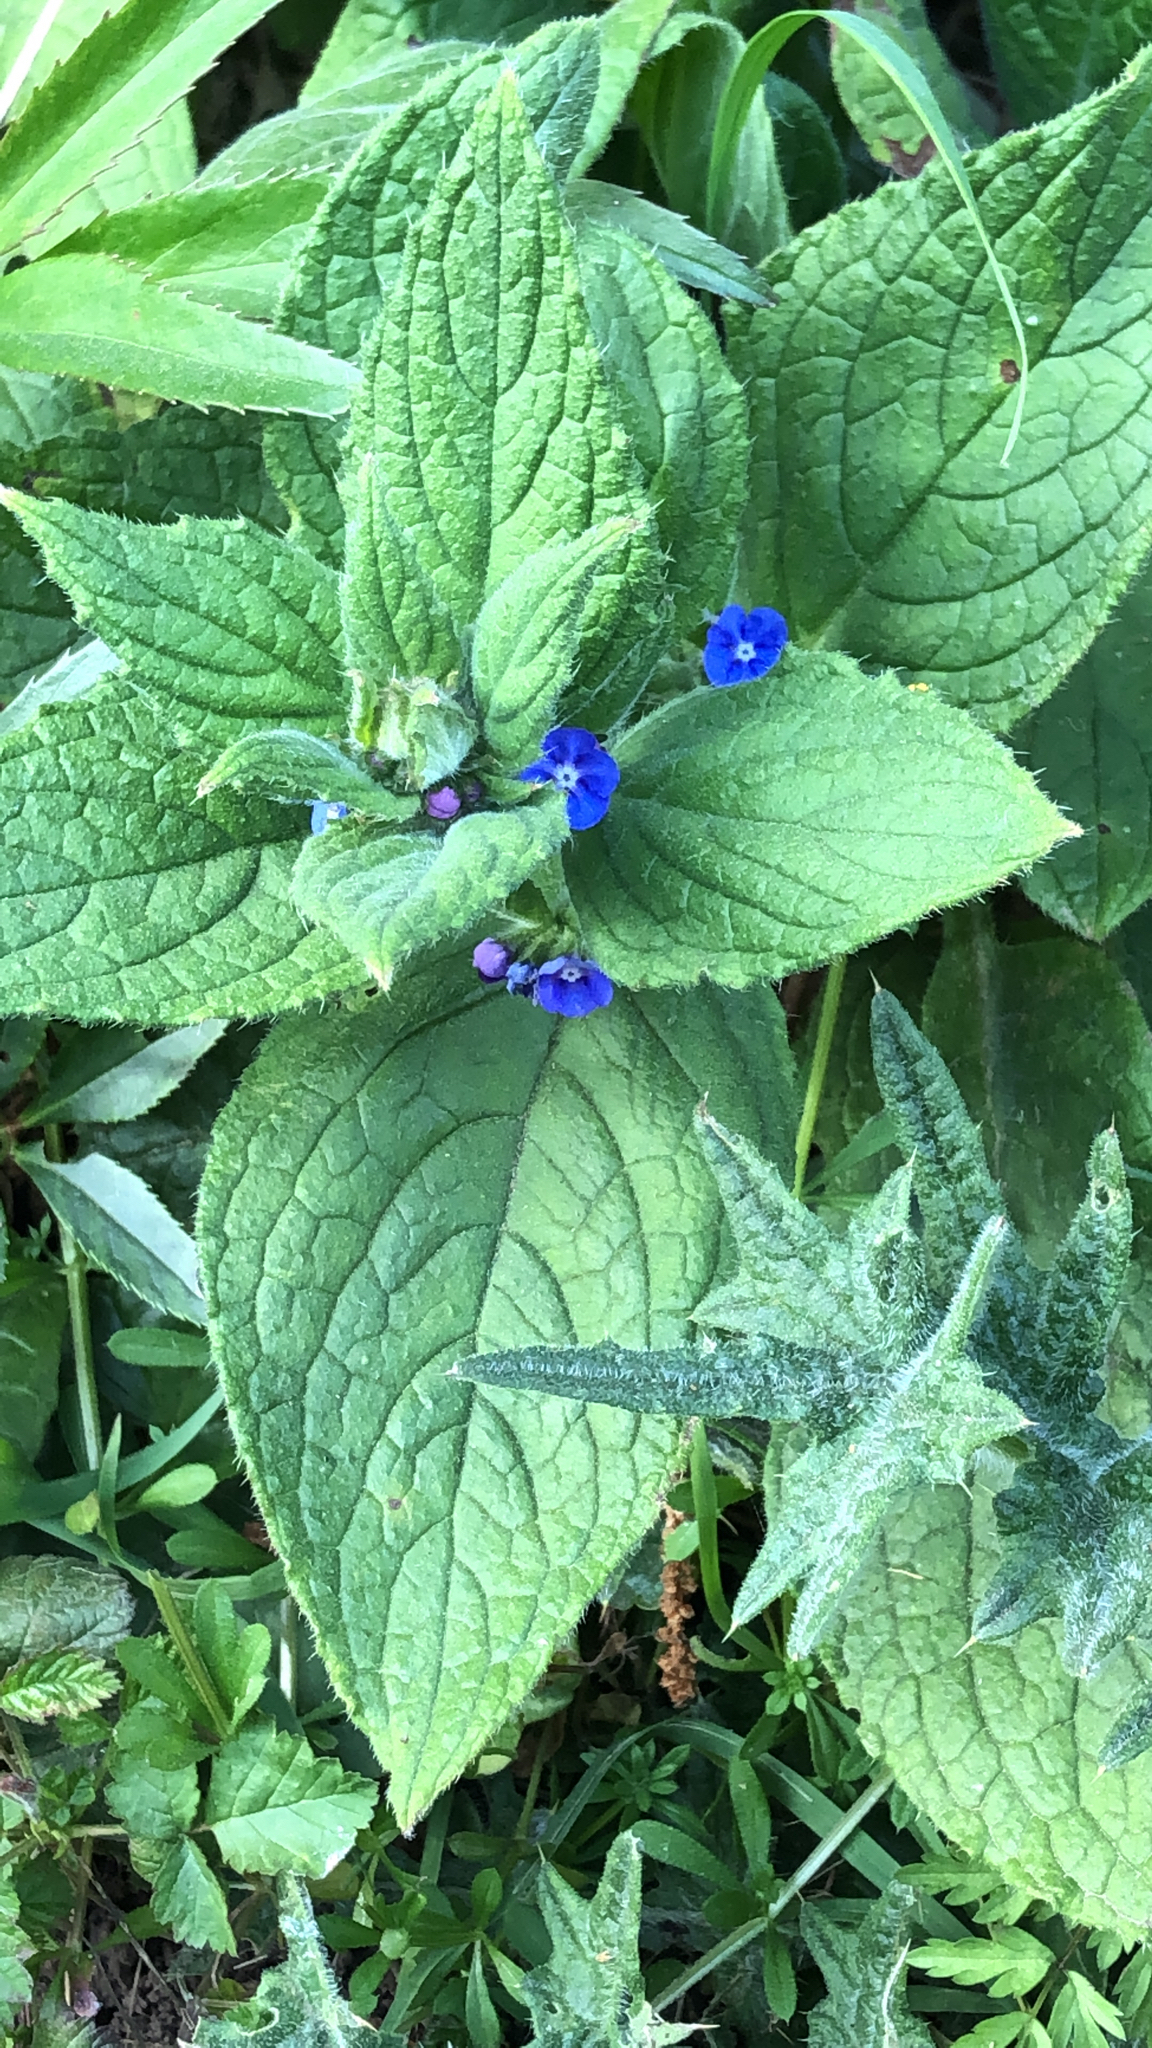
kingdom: Plantae
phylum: Tracheophyta
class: Magnoliopsida
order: Boraginales
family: Boraginaceae
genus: Pentaglottis
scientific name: Pentaglottis sempervirens
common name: Green alkanet
